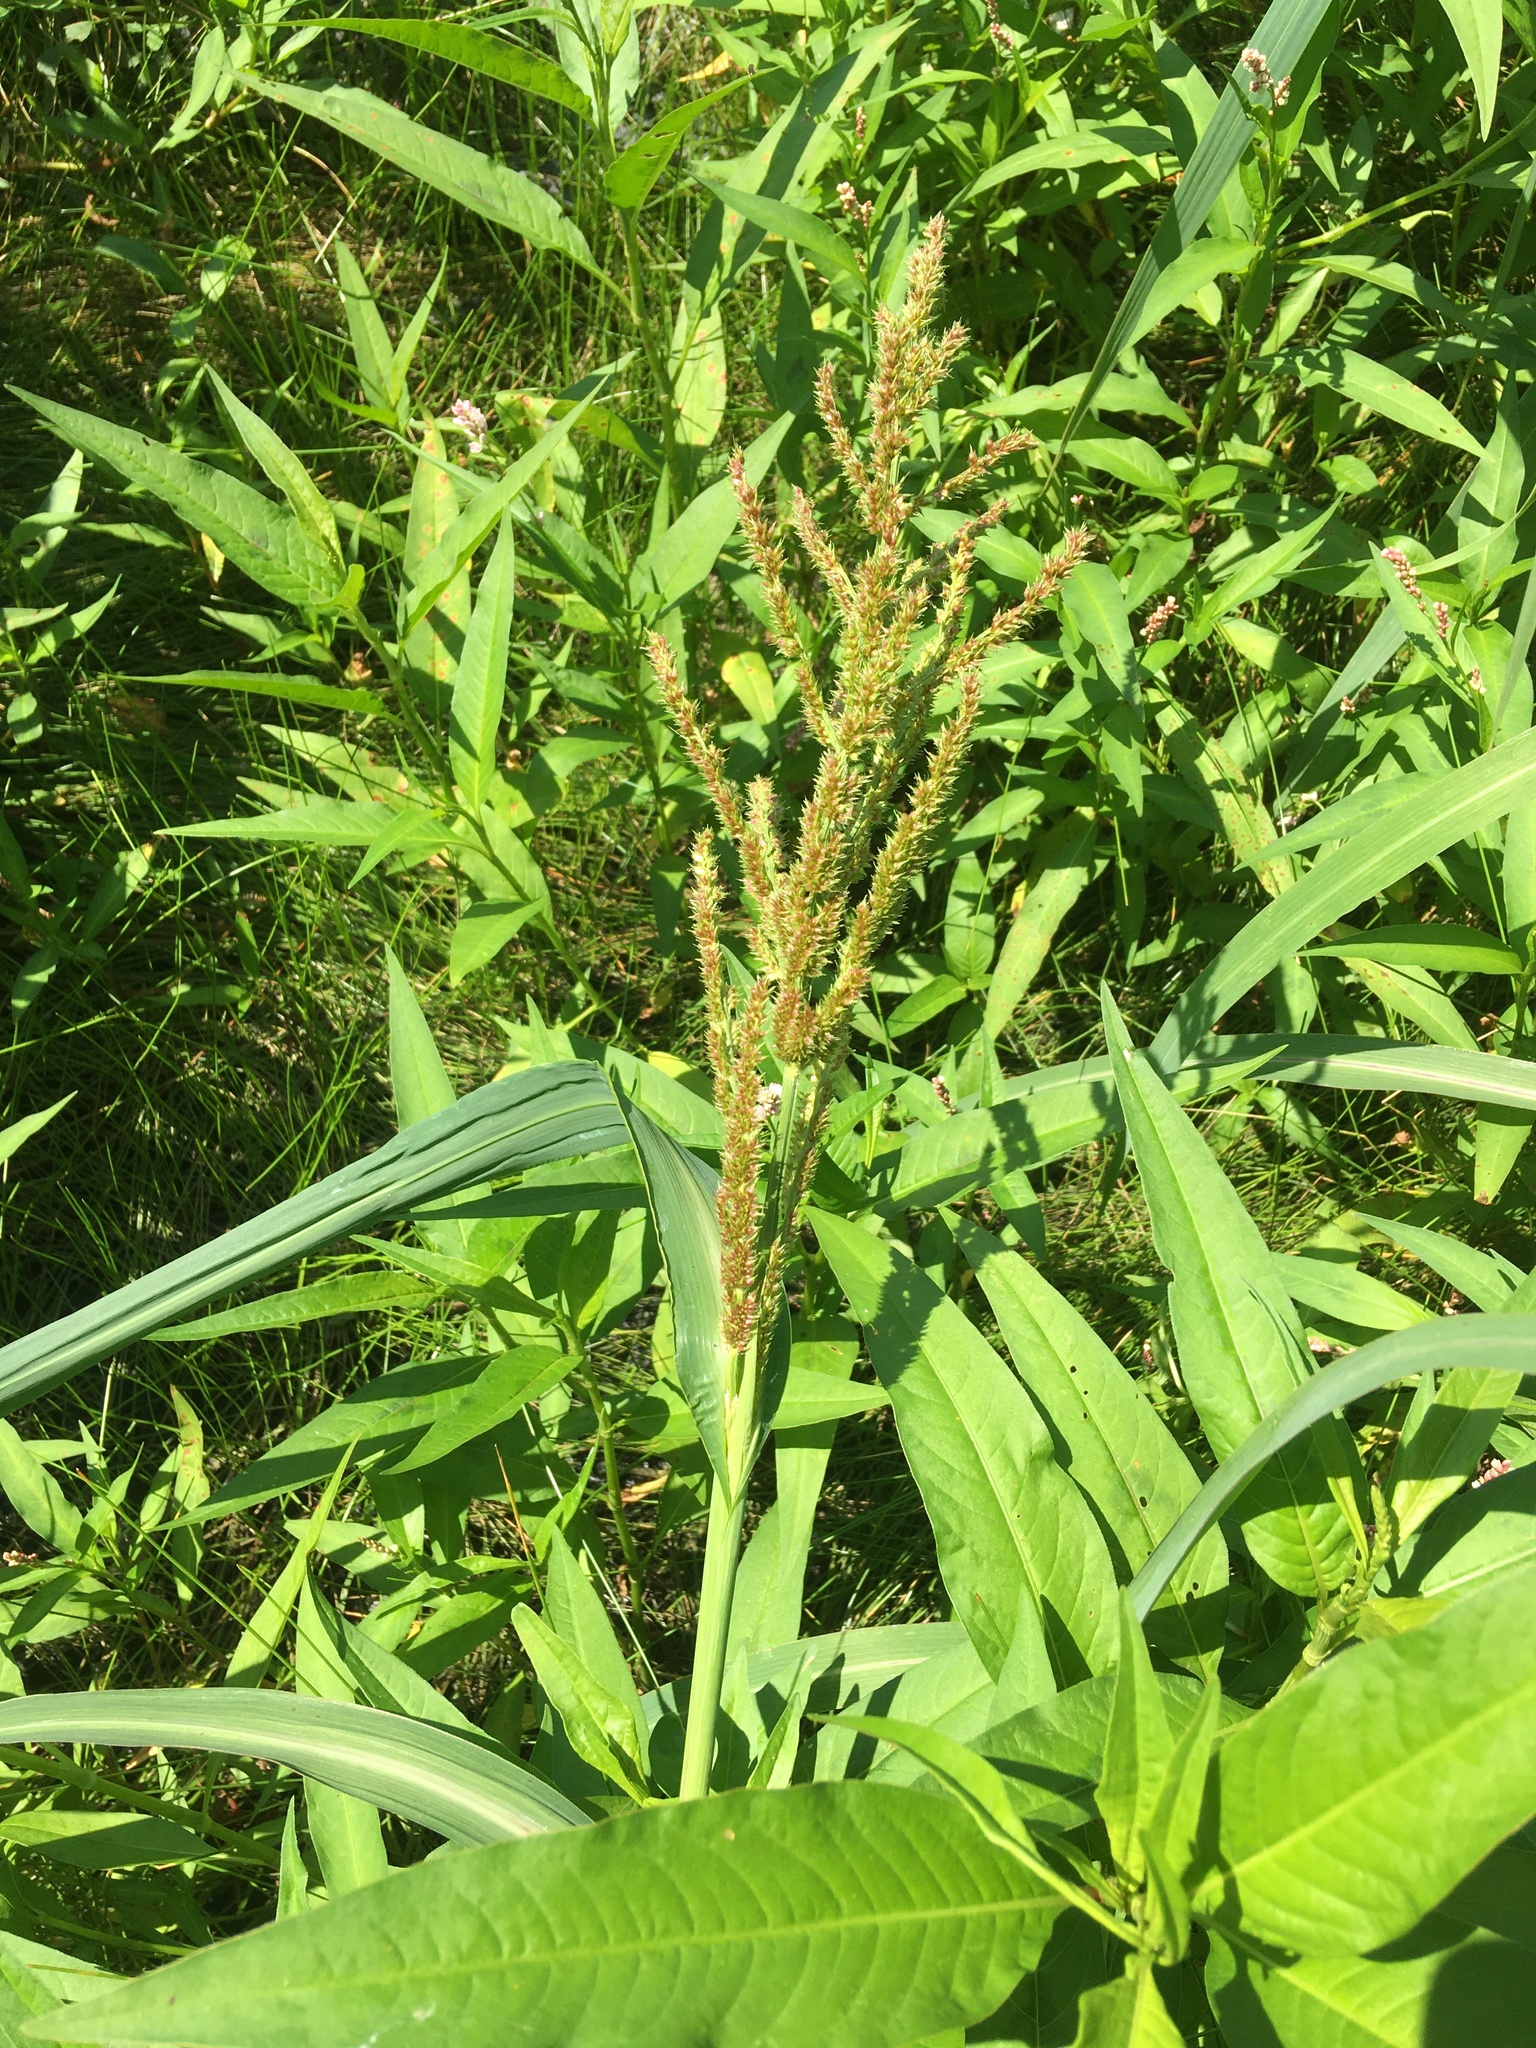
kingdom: Plantae
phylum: Tracheophyta
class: Liliopsida
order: Poales
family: Poaceae
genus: Echinochloa
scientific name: Echinochloa crus-galli
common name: Cockspur
